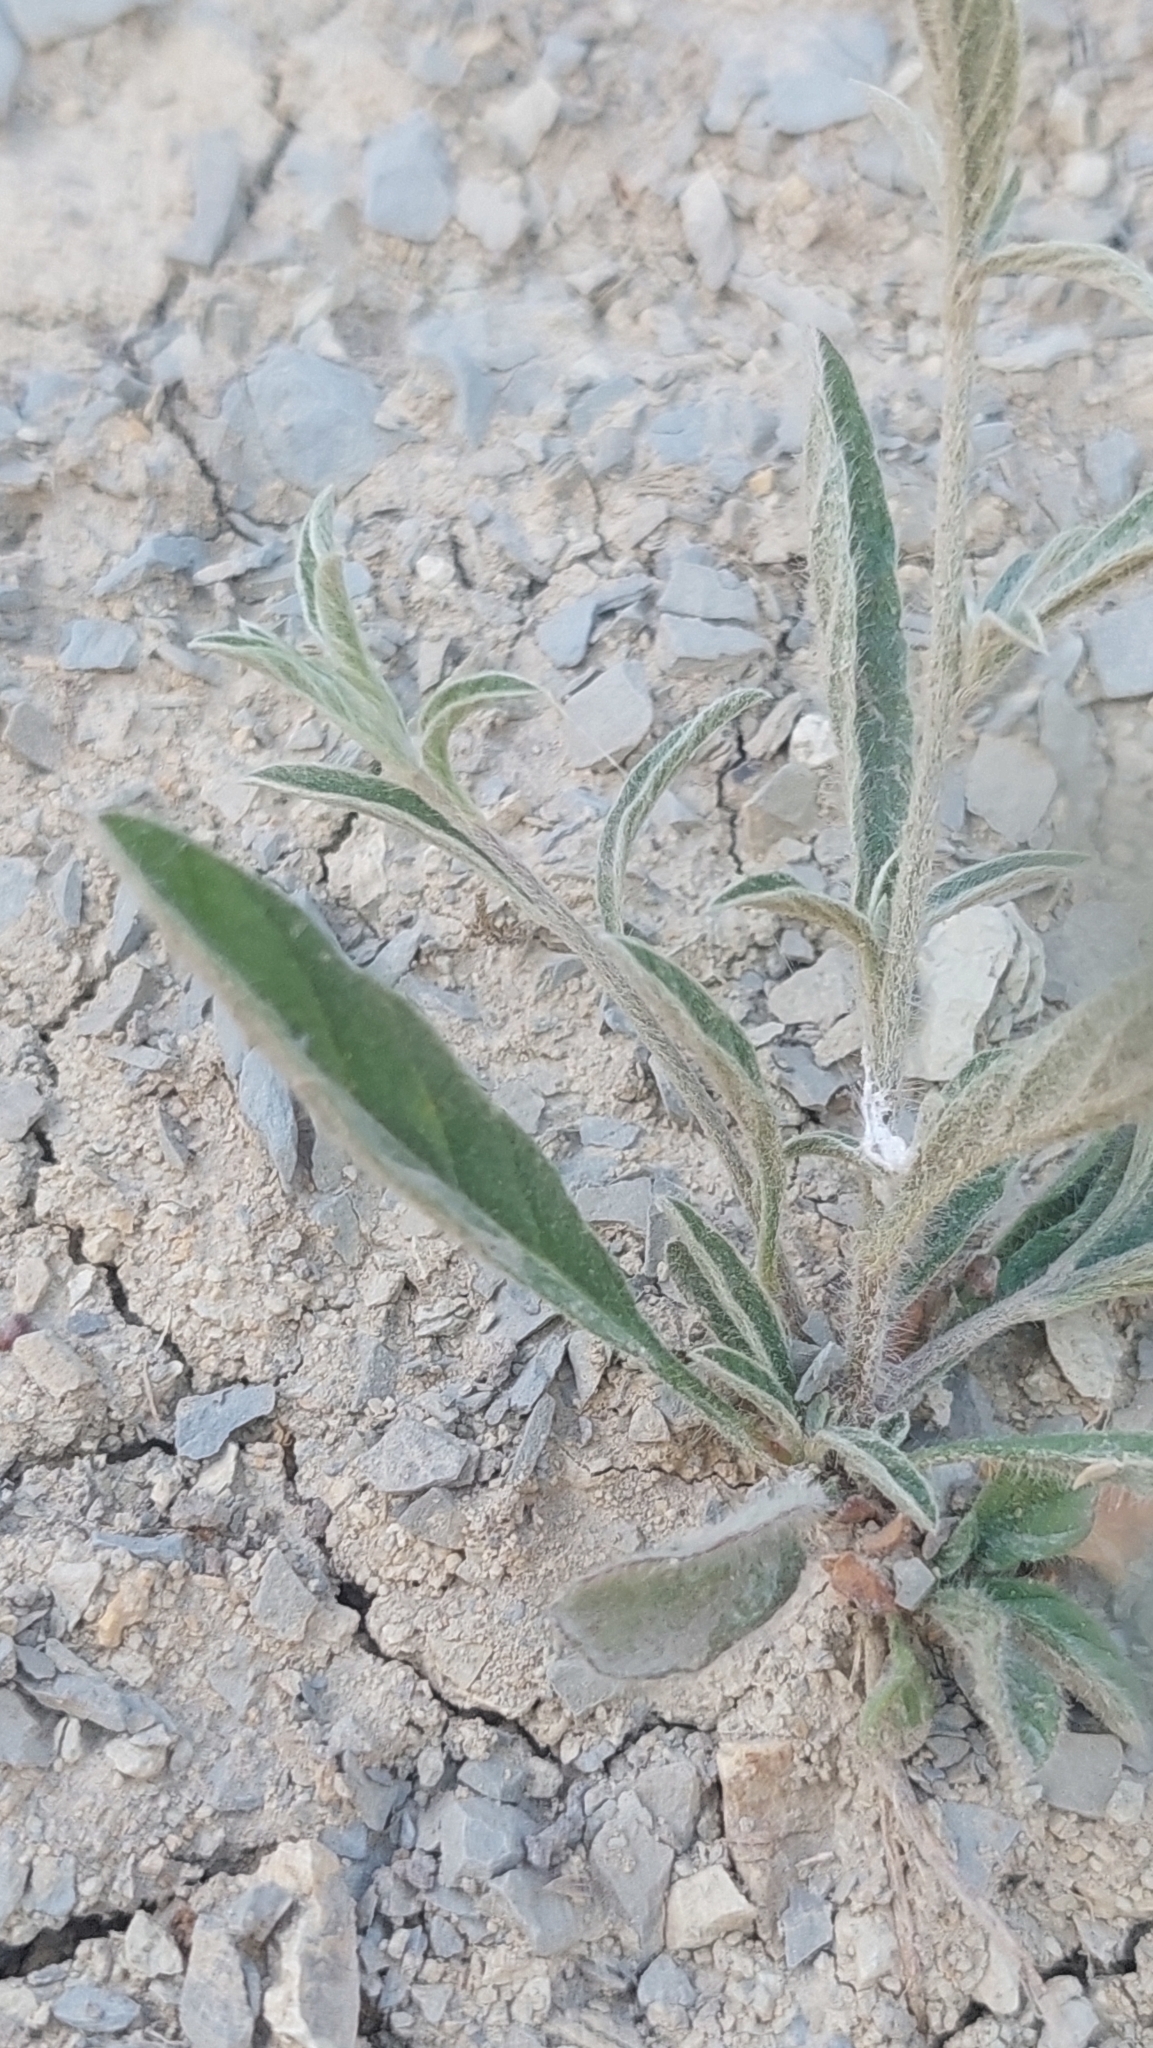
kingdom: Plantae
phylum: Tracheophyta
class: Magnoliopsida
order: Solanales
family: Convolvulaceae
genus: Convolvulus
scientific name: Convolvulus cantabrica
